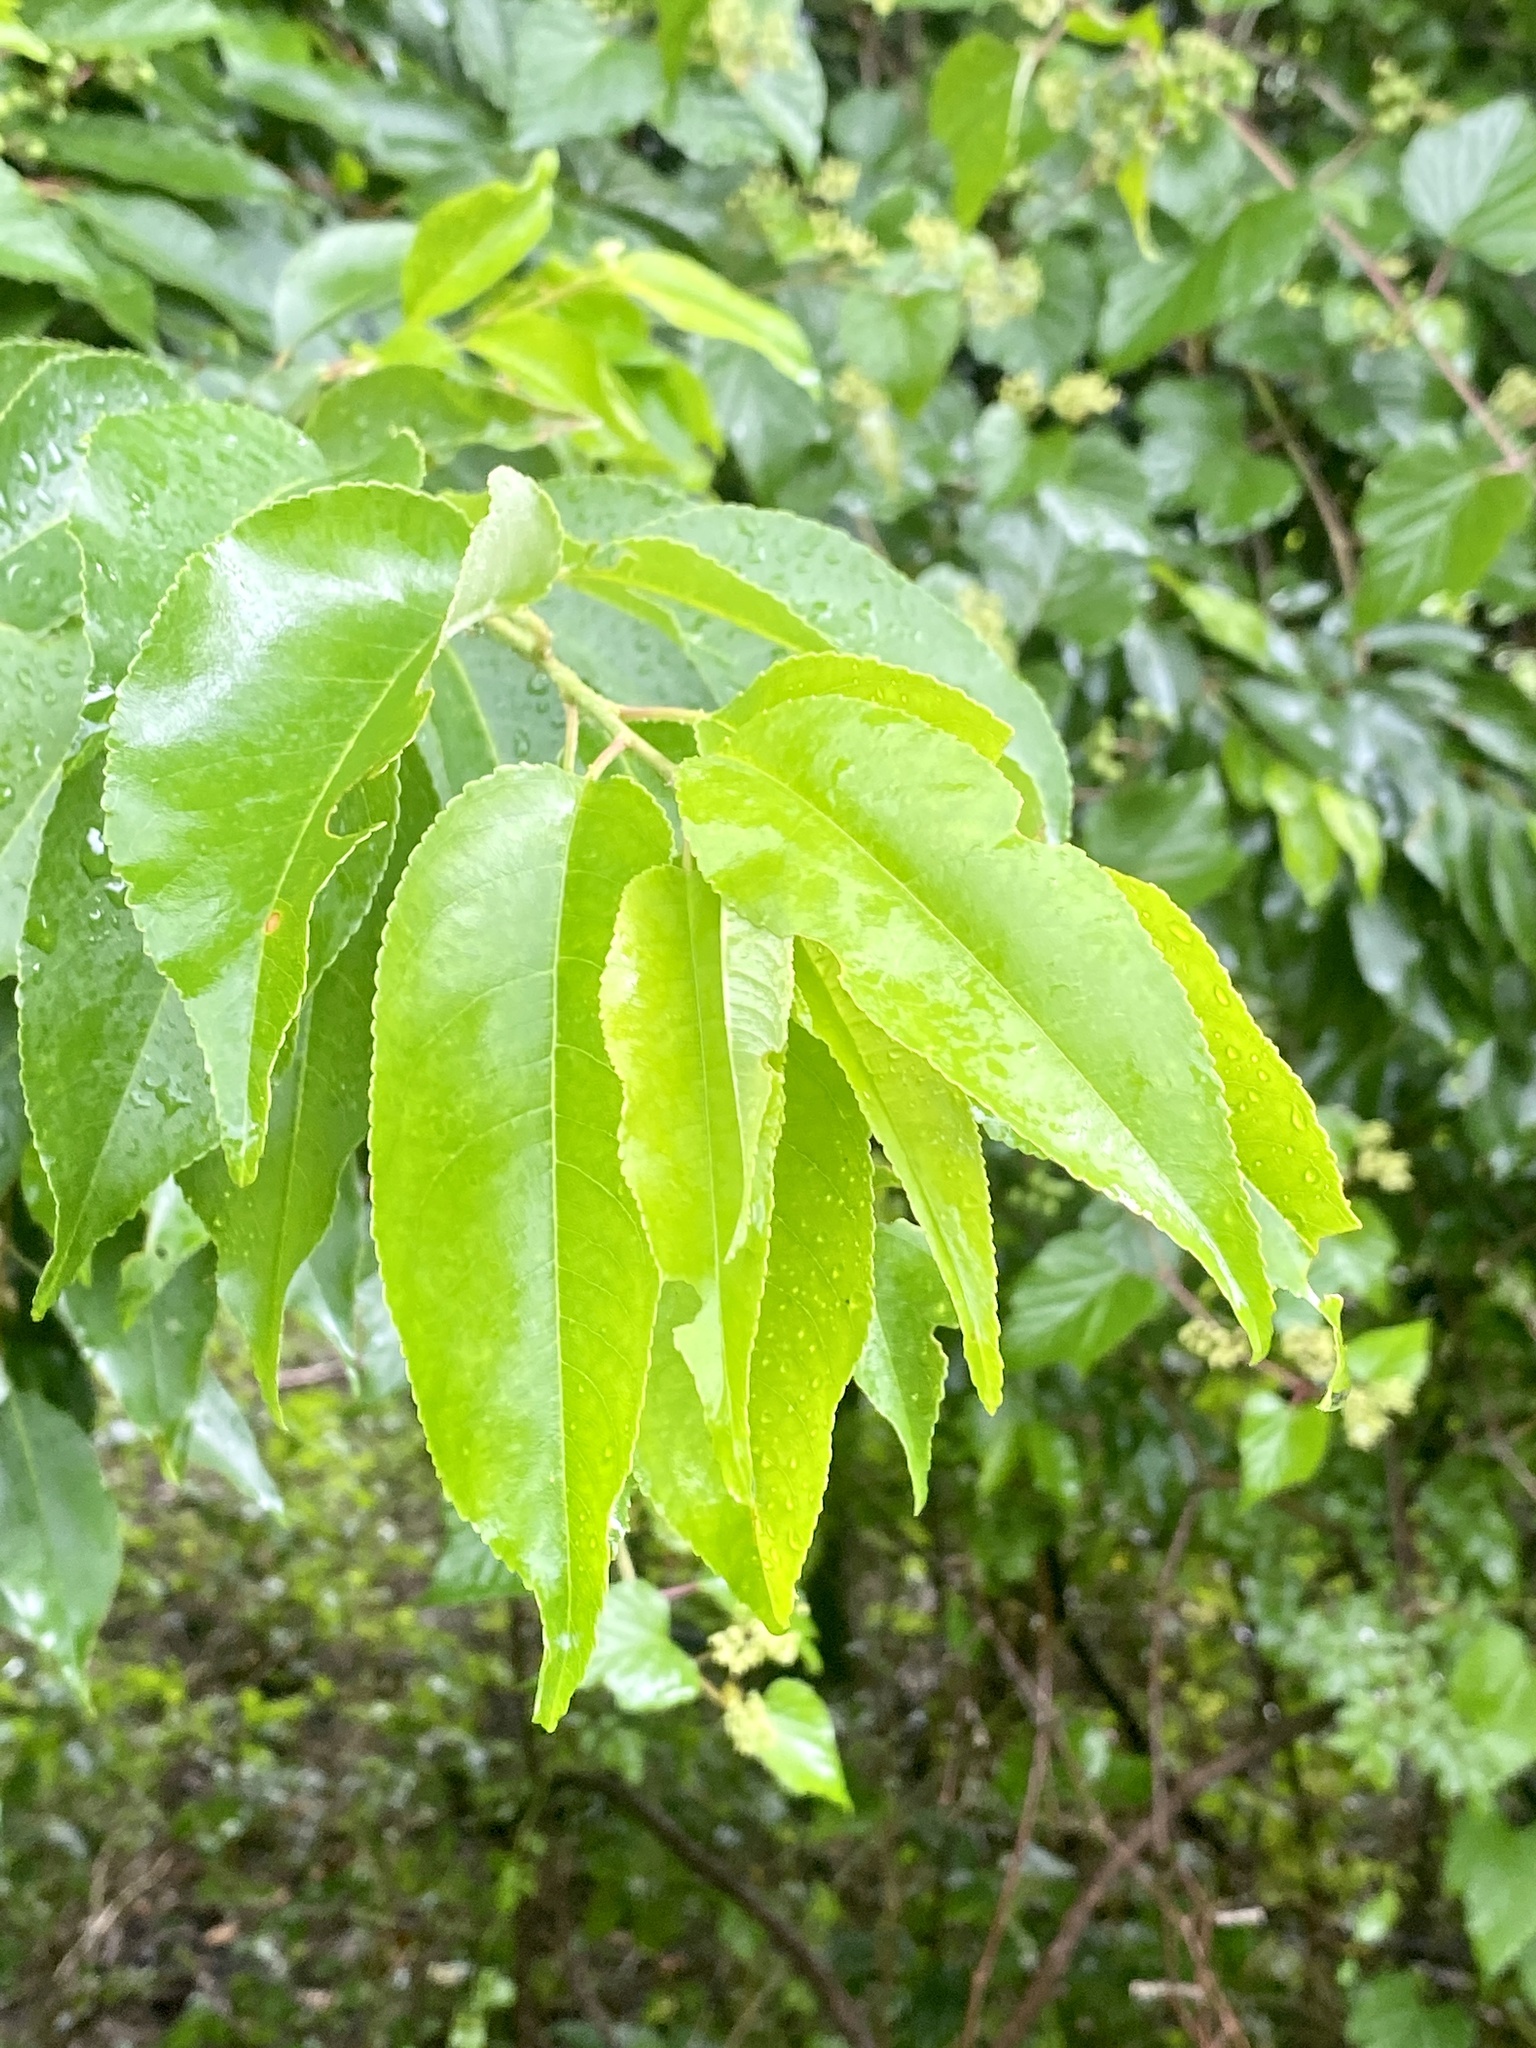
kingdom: Plantae
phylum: Tracheophyta
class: Magnoliopsida
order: Rosales
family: Rosaceae
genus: Prunus
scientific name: Prunus serotina
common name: Black cherry
